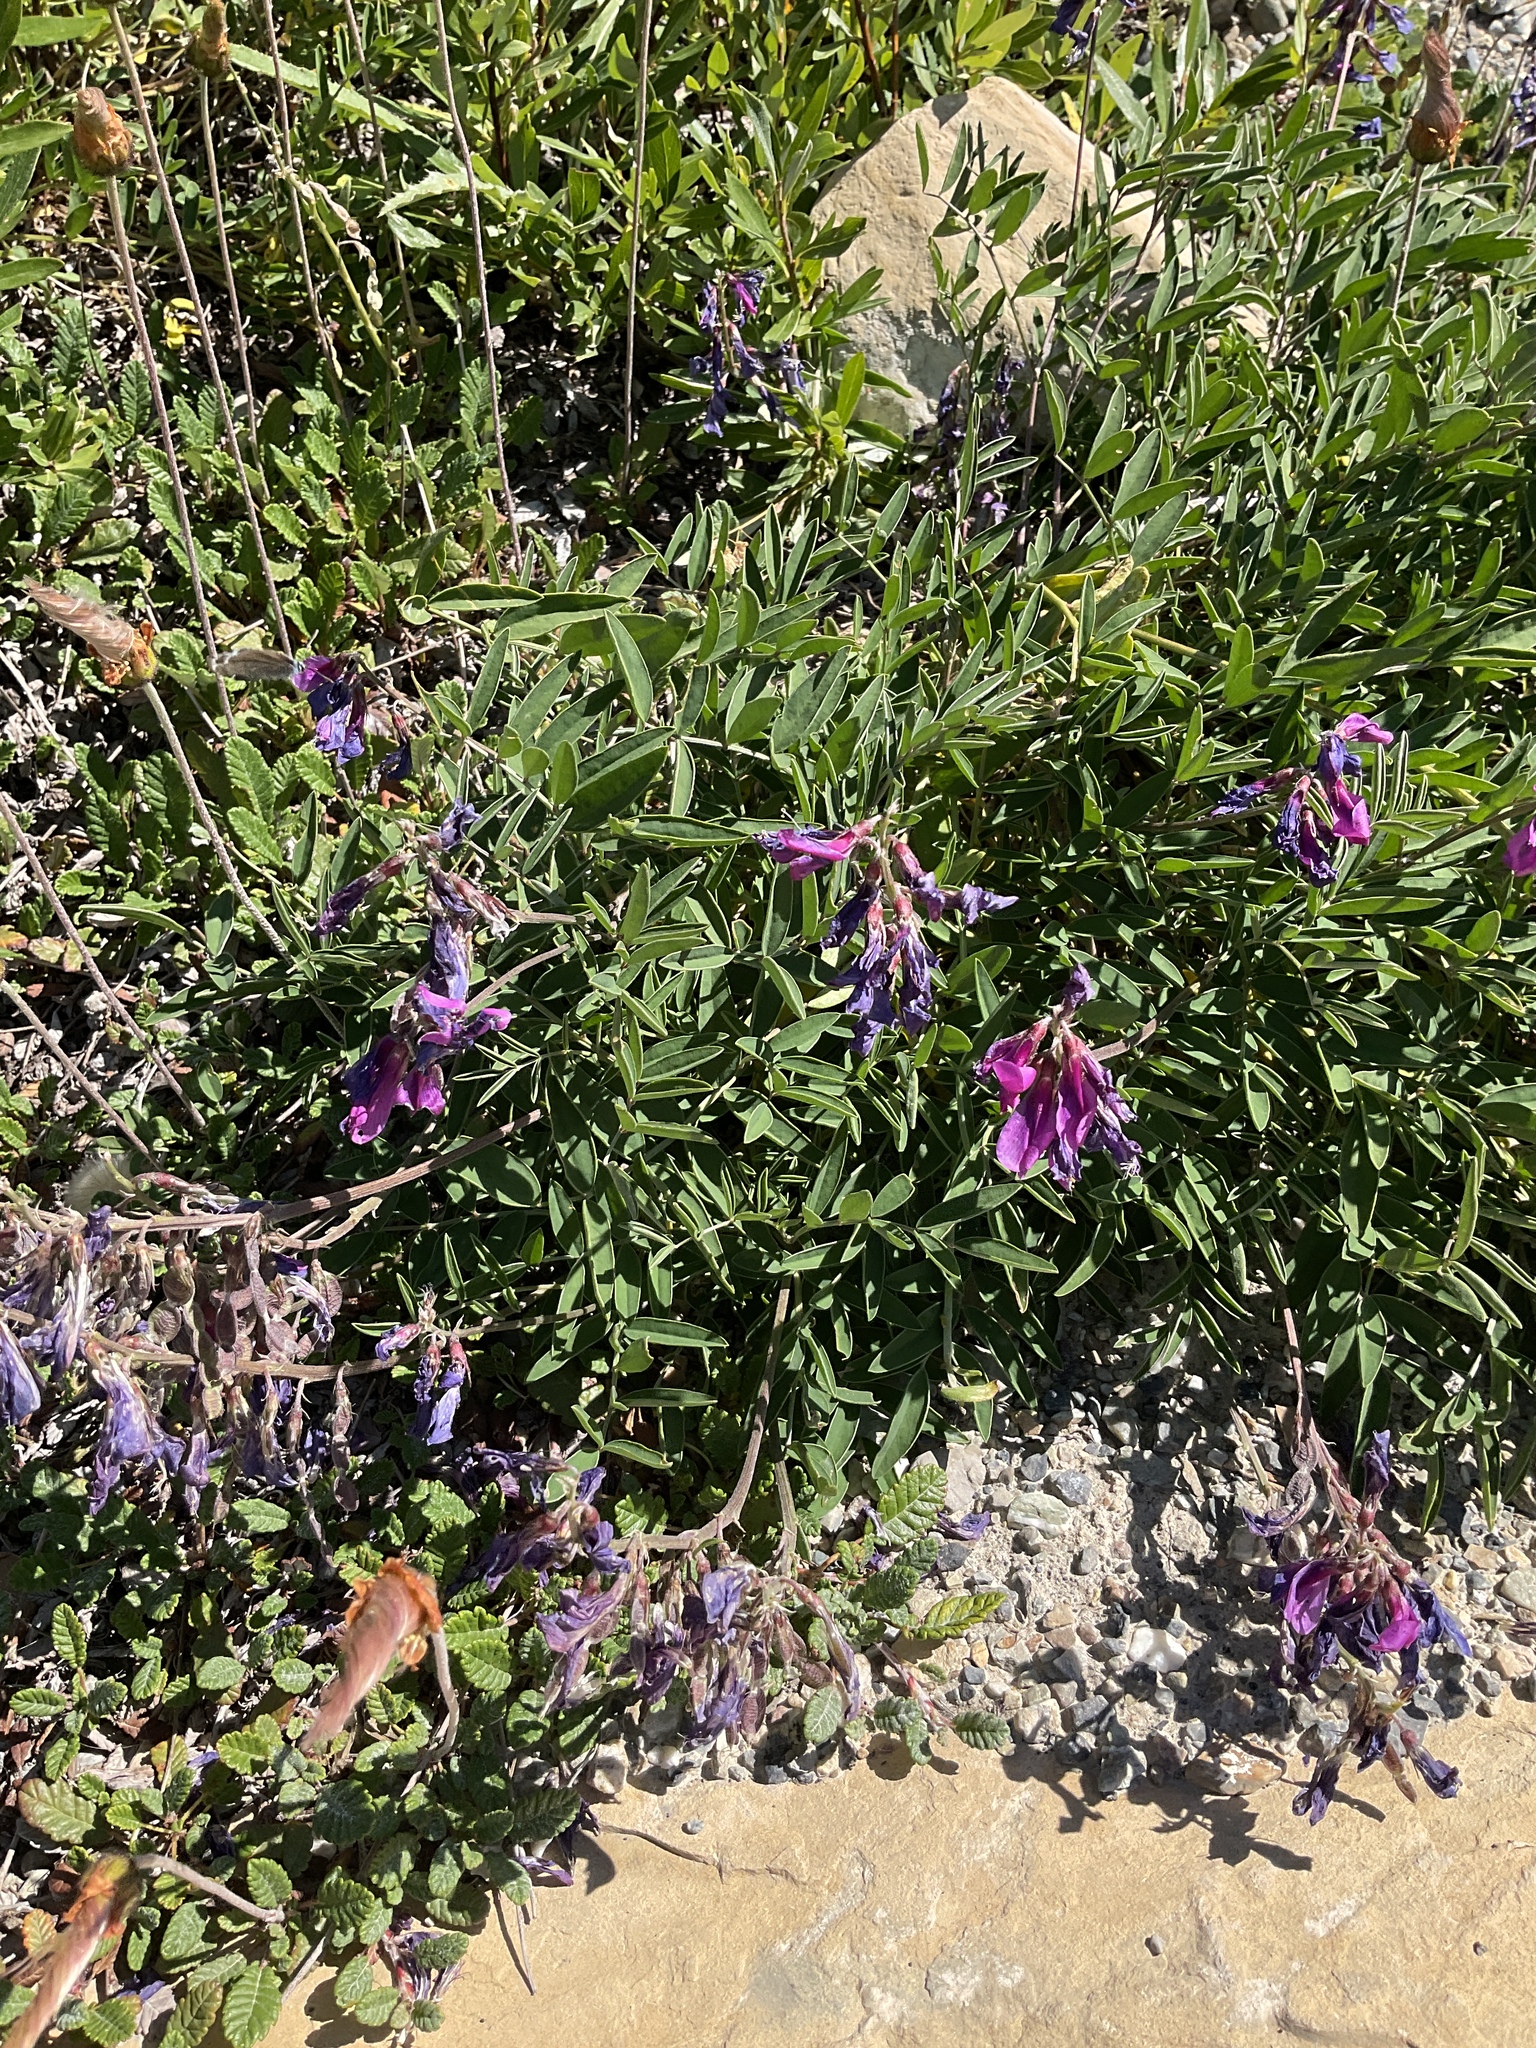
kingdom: Plantae
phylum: Tracheophyta
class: Magnoliopsida
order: Fabales
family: Fabaceae
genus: Hedysarum
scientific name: Hedysarum boreale
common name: Northern sweet-vetch
